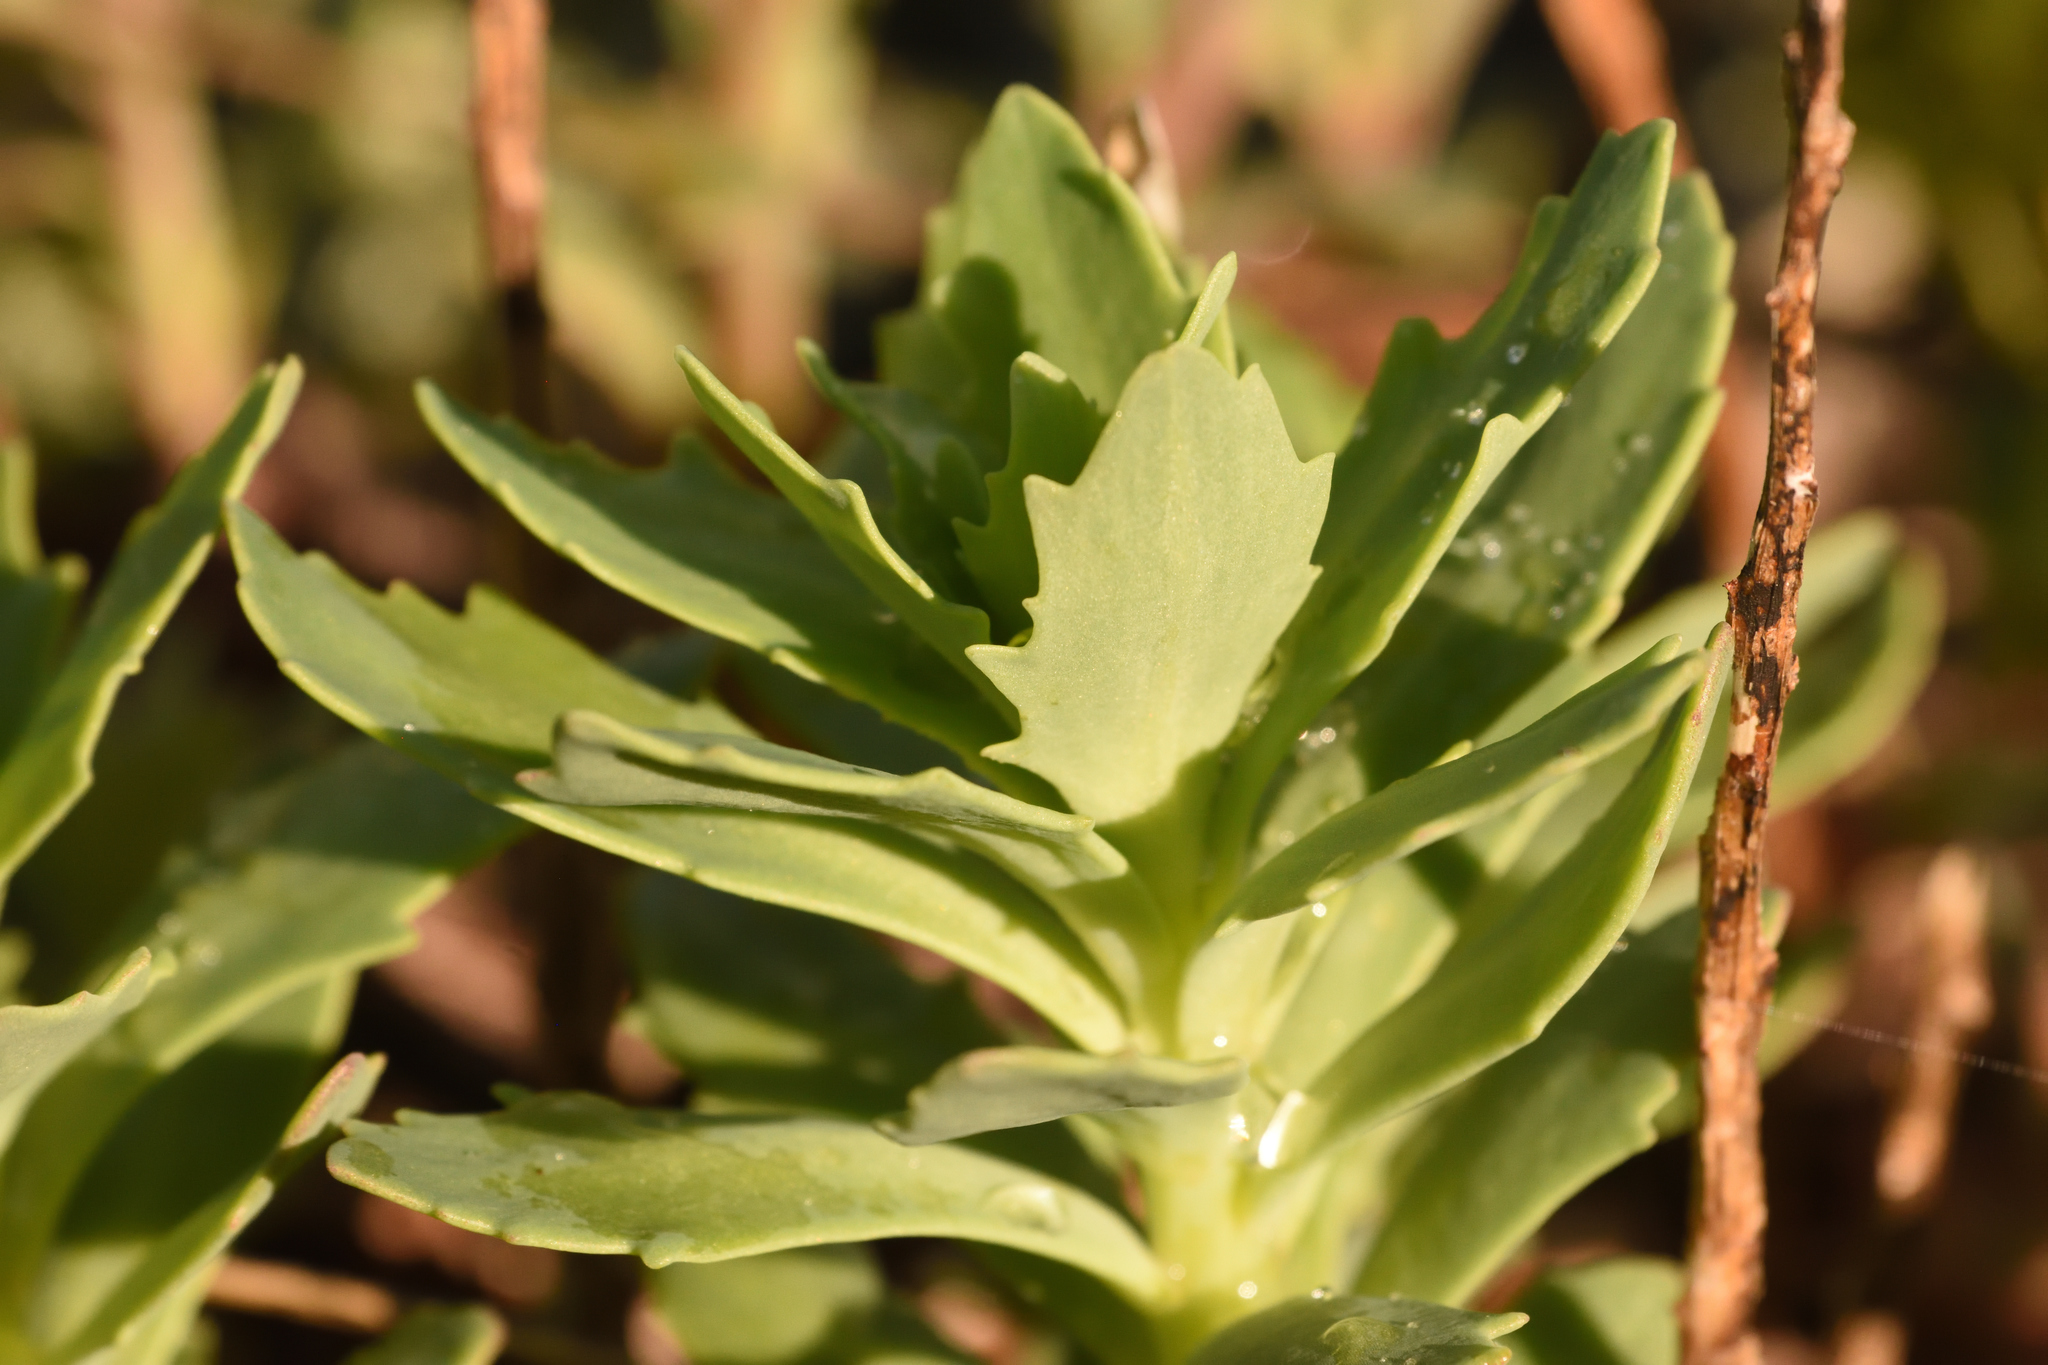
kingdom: Plantae
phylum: Tracheophyta
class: Magnoliopsida
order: Saxifragales
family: Crassulaceae
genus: Hylotelephium
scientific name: Hylotelephium telephioides
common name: Allegheny stonecrop
